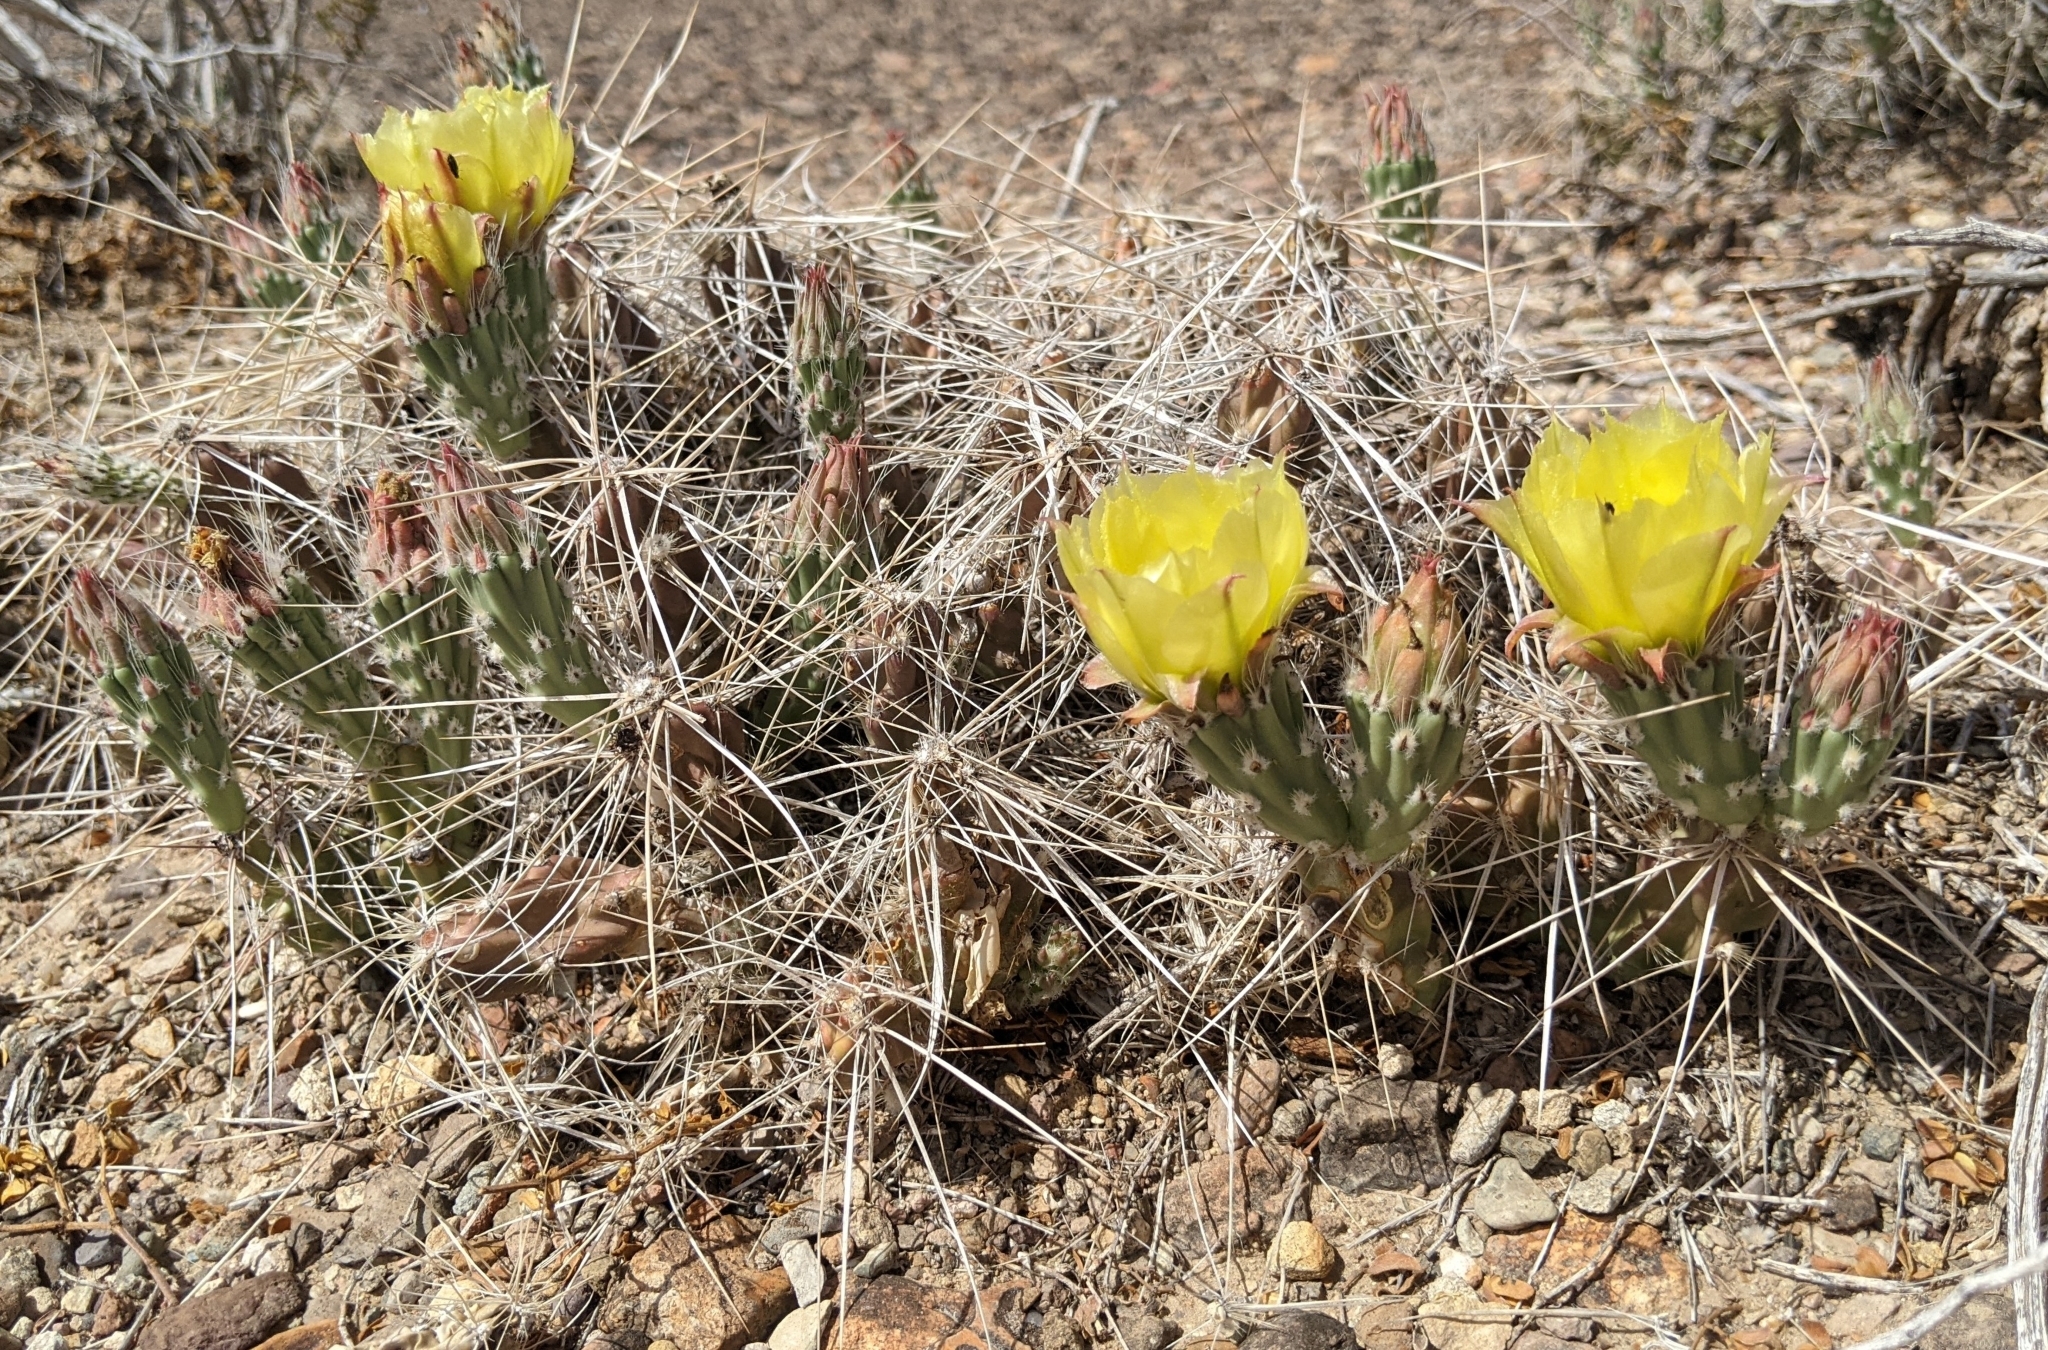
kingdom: Plantae
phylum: Tracheophyta
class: Magnoliopsida
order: Caryophyllales
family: Cactaceae
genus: Grusonia
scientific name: Grusonia aggeria
